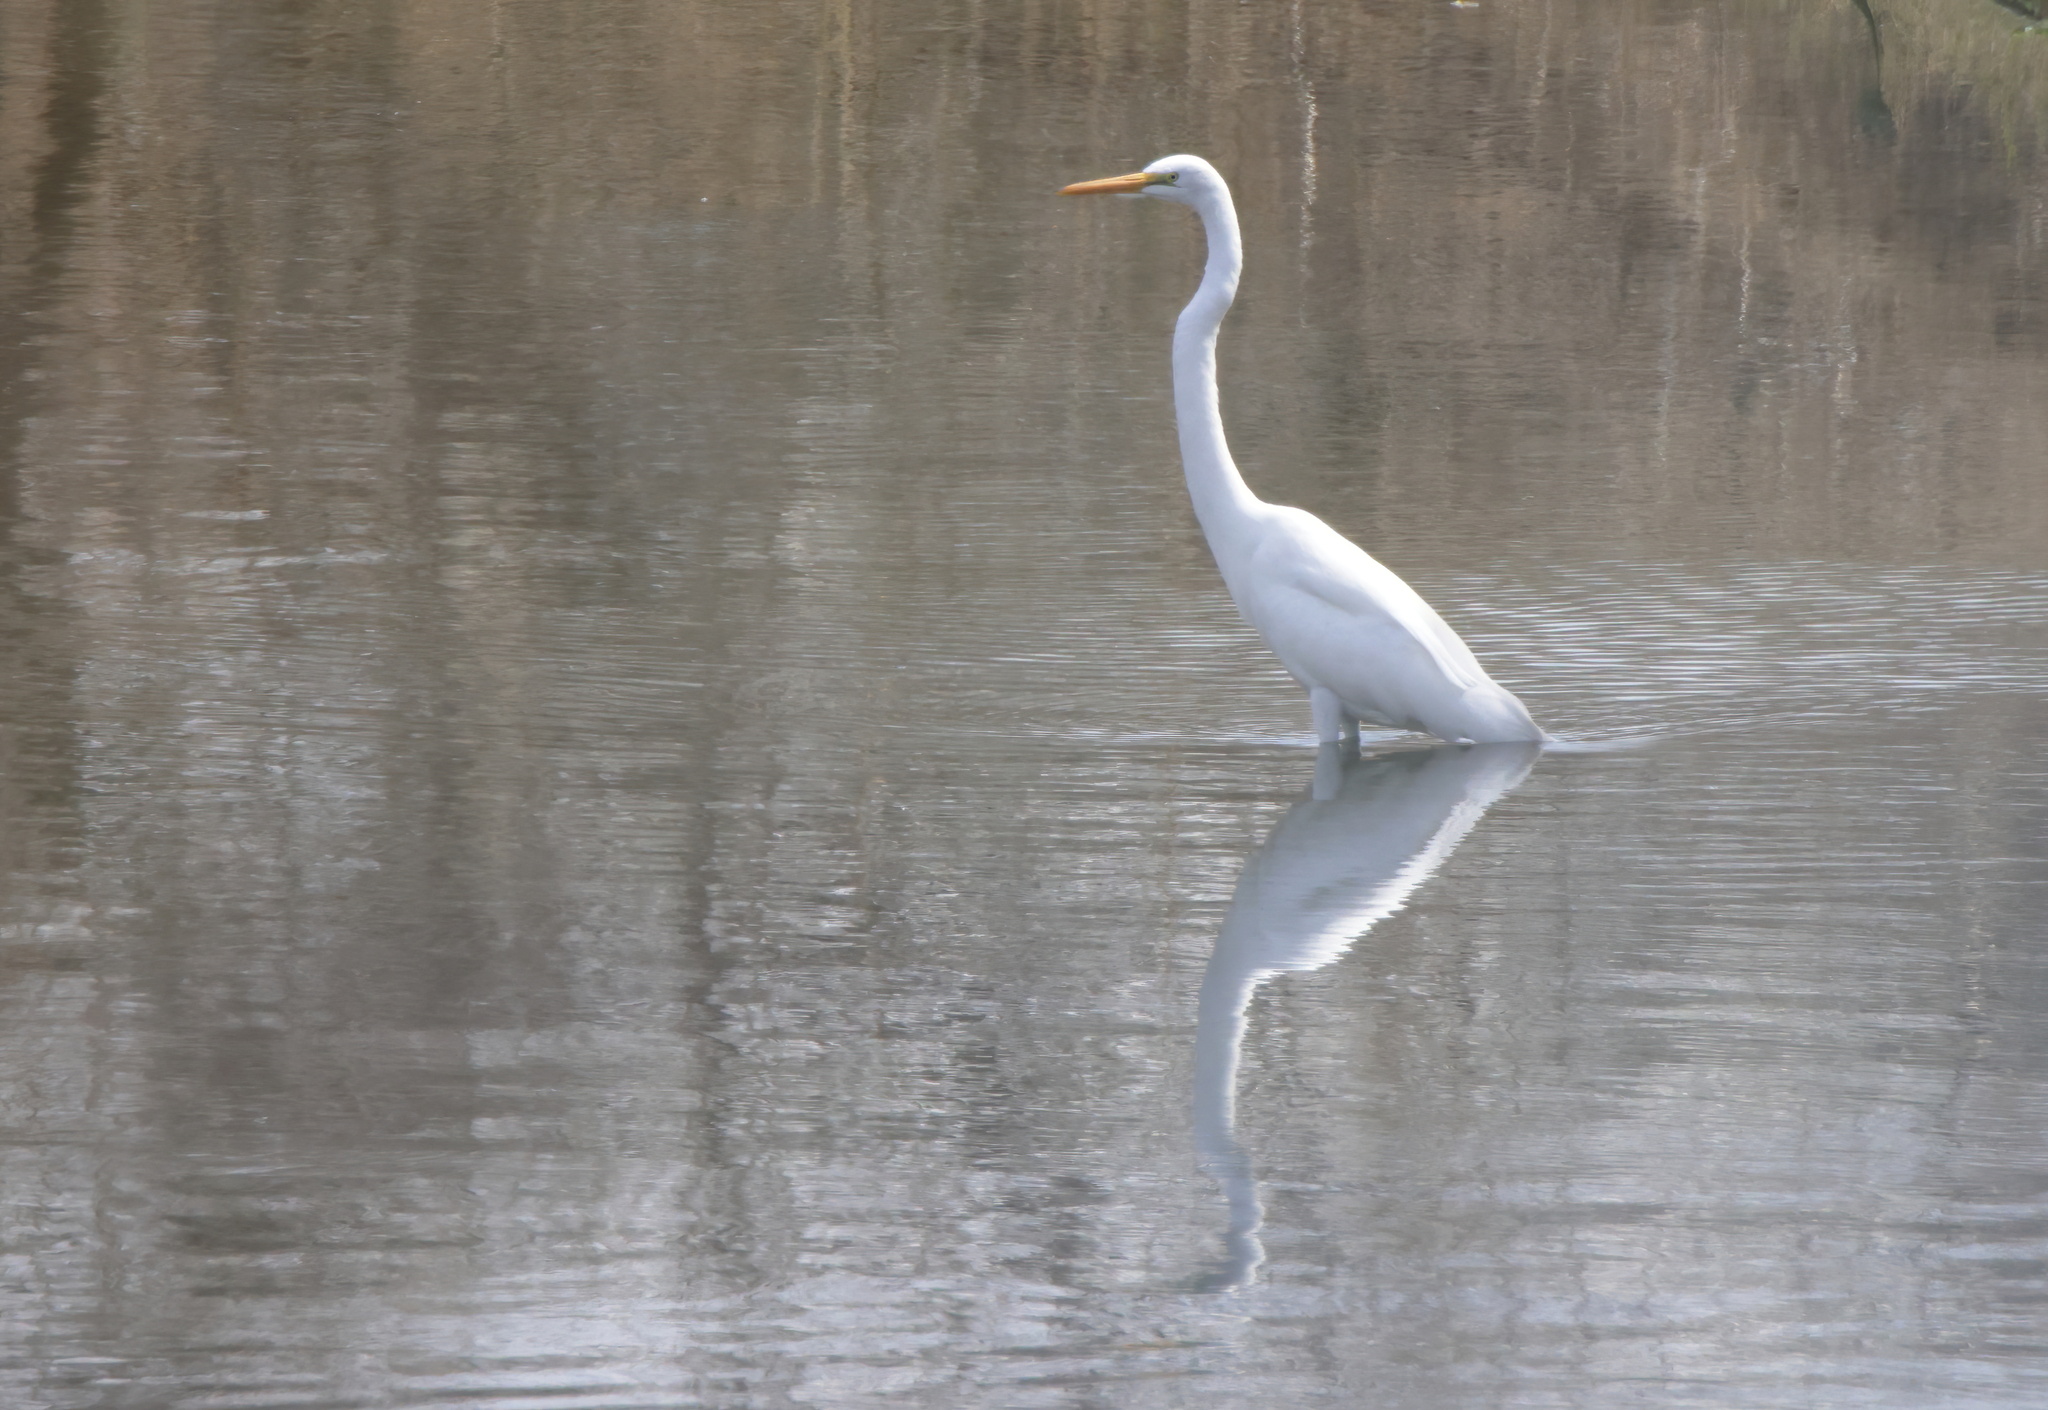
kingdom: Animalia
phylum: Chordata
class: Aves
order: Pelecaniformes
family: Ardeidae
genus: Ardea
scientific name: Ardea alba
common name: Great egret
